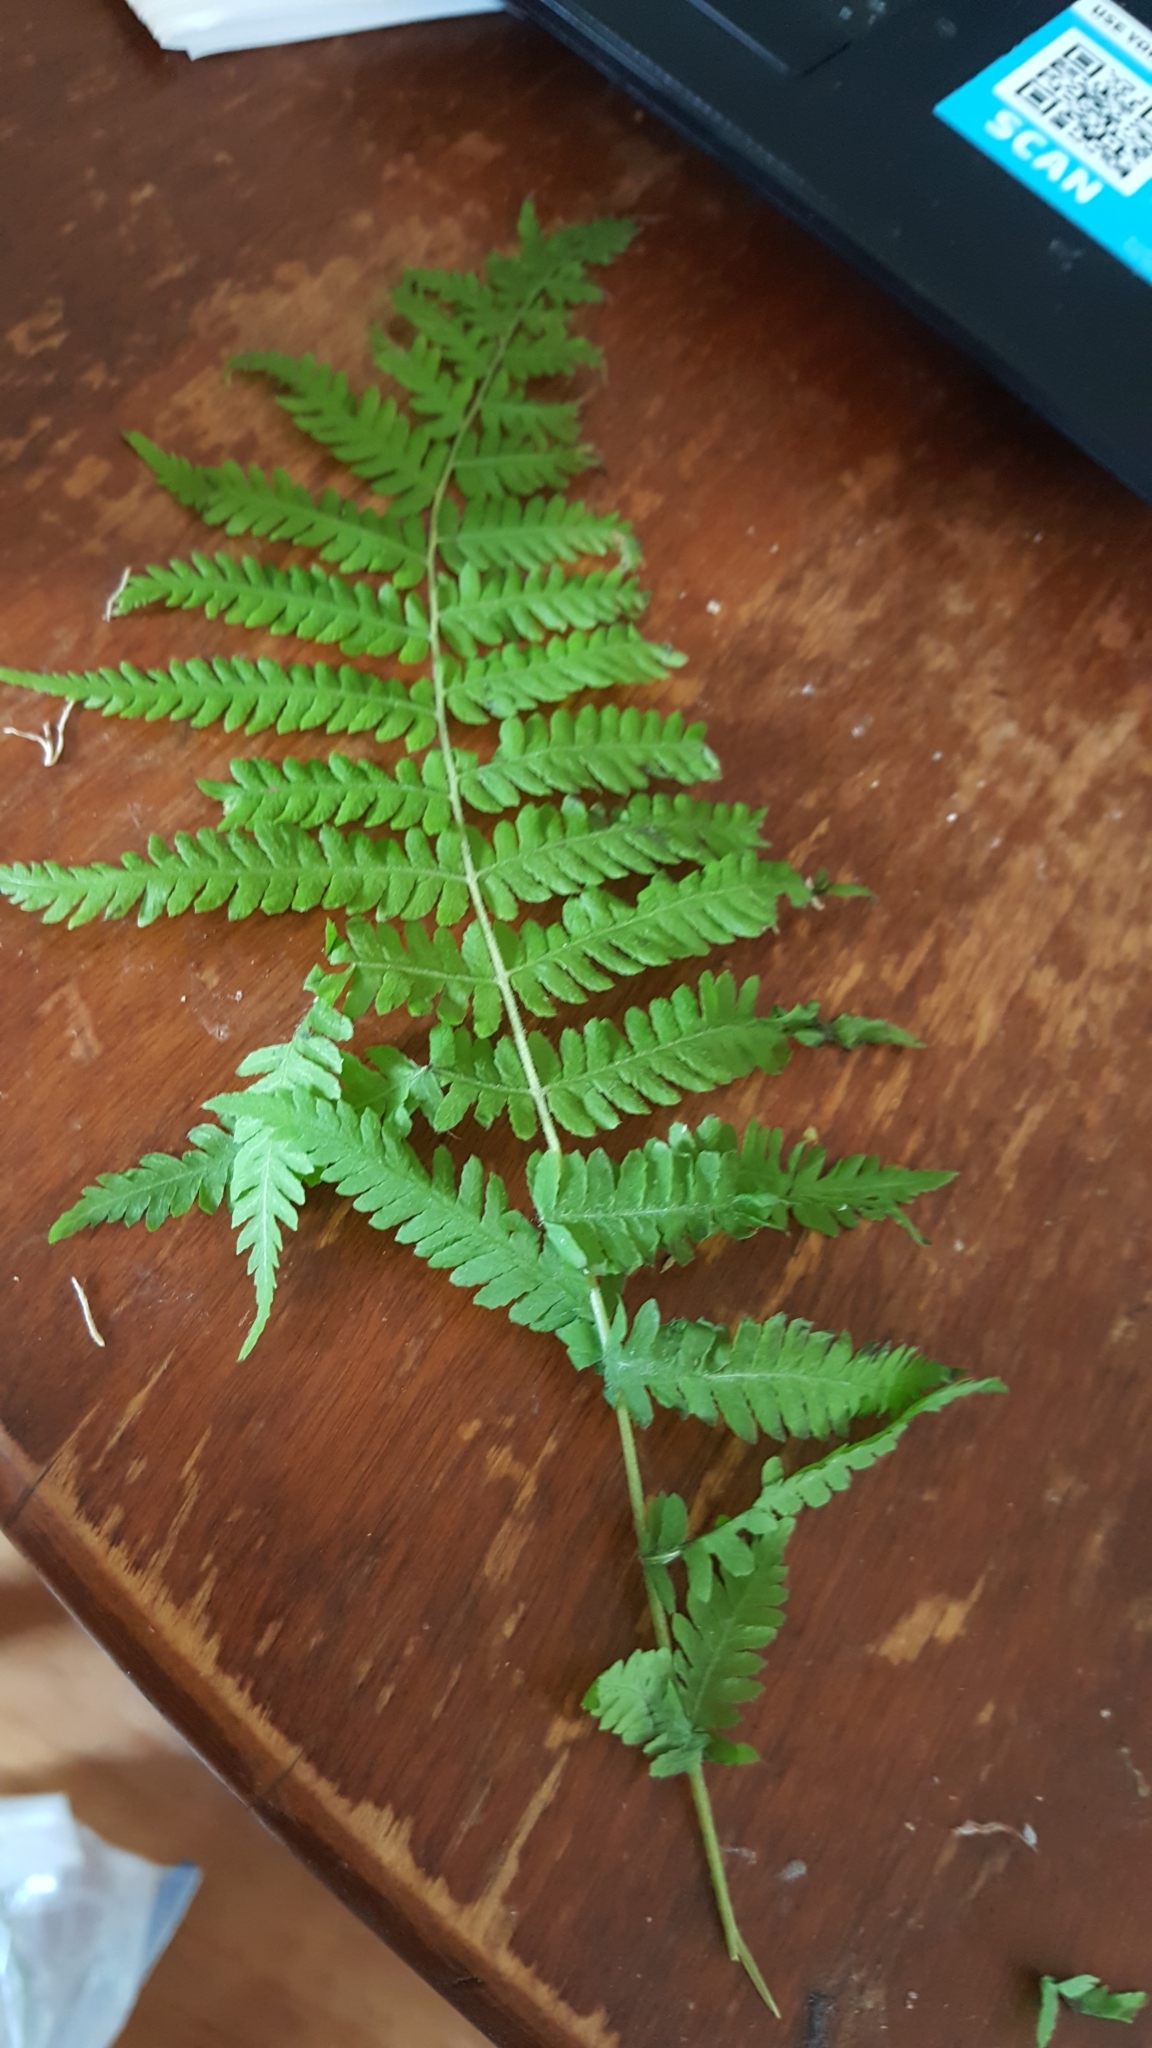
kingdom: Plantae
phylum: Tracheophyta
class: Polypodiopsida
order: Polypodiales
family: Thelypteridaceae
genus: Amauropelta
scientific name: Amauropelta noveboracensis
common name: New york fern
